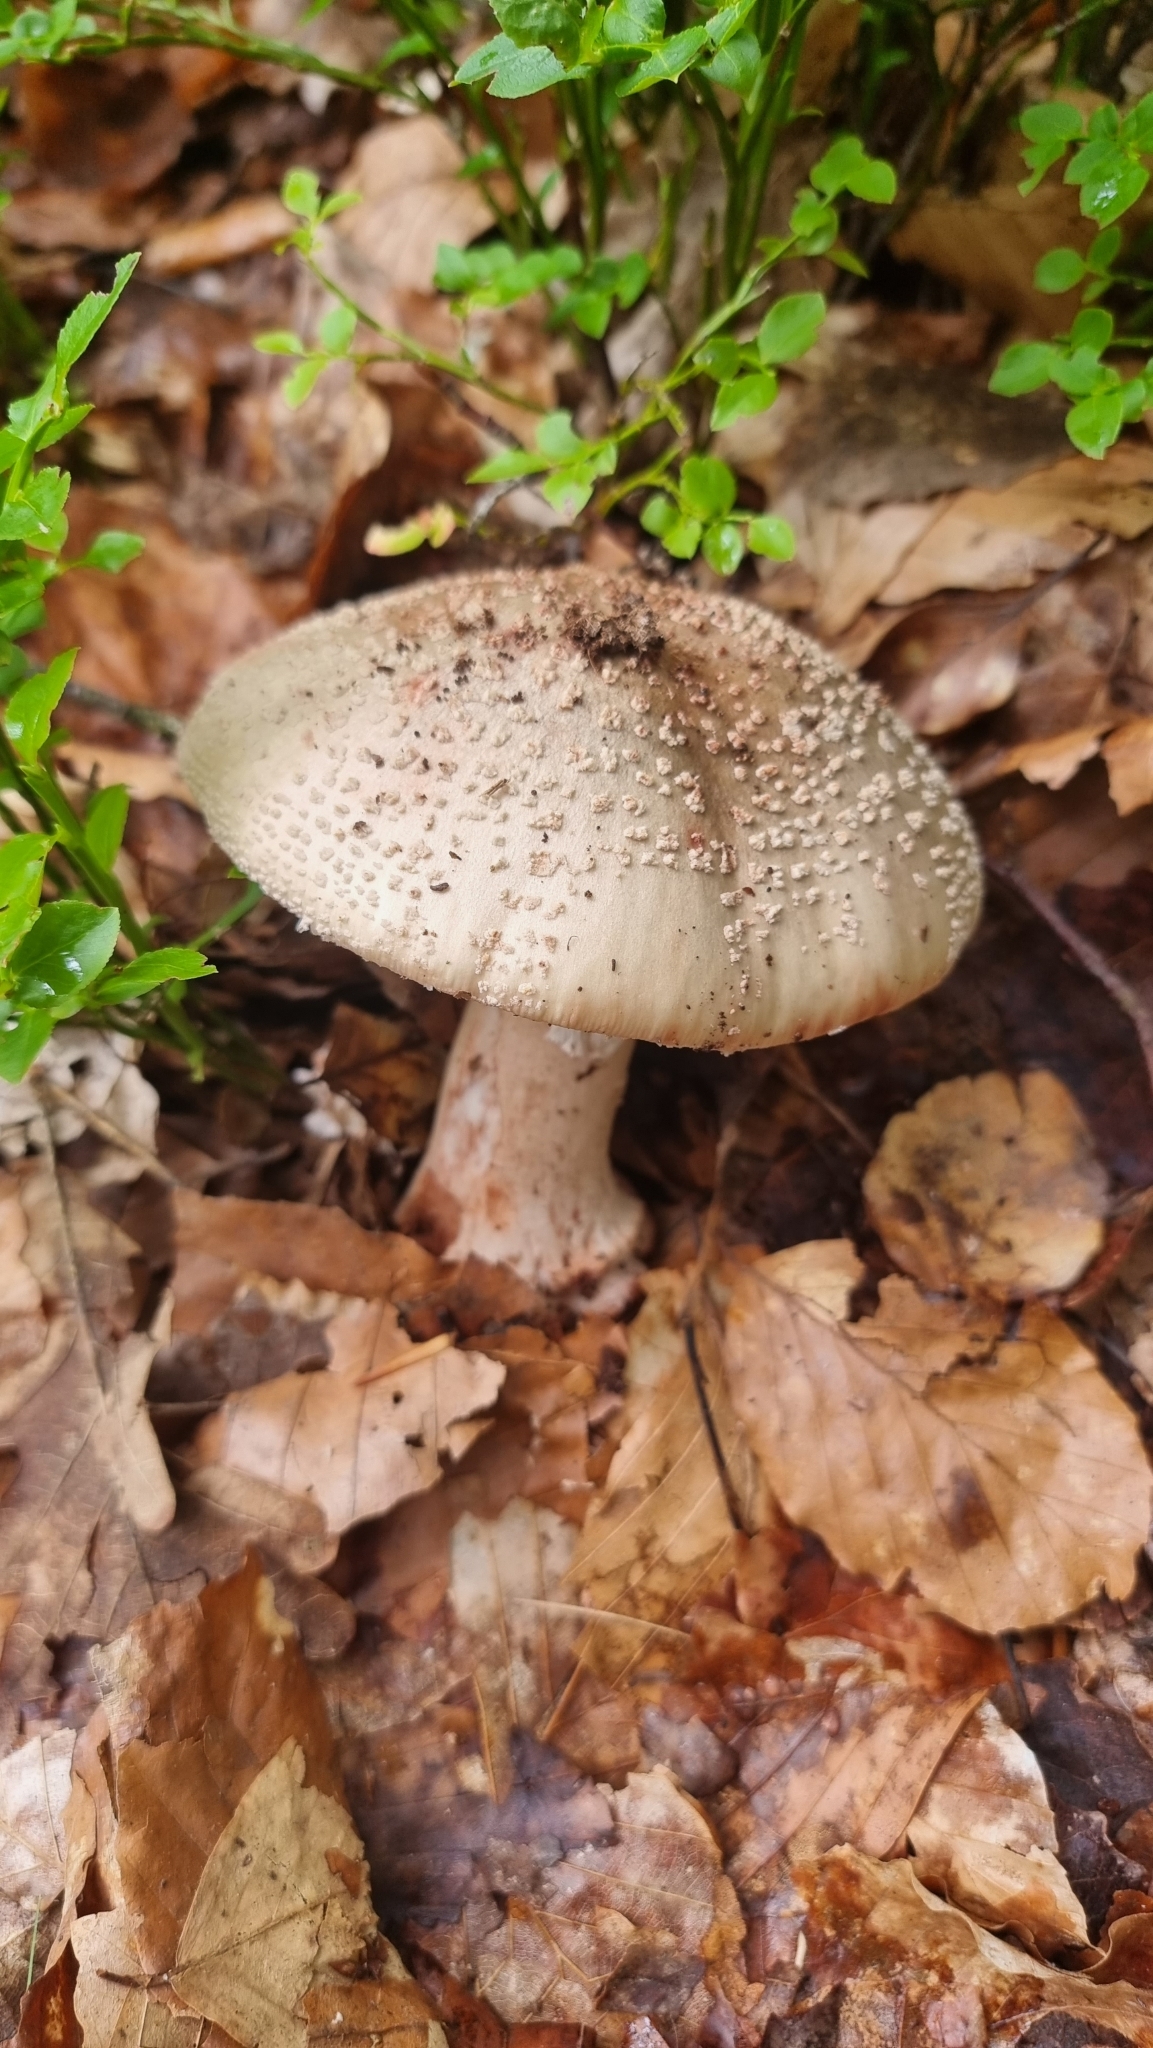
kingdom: Fungi
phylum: Basidiomycota
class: Agaricomycetes
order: Agaricales
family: Amanitaceae
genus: Amanita
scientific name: Amanita rubescens
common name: Blusher
